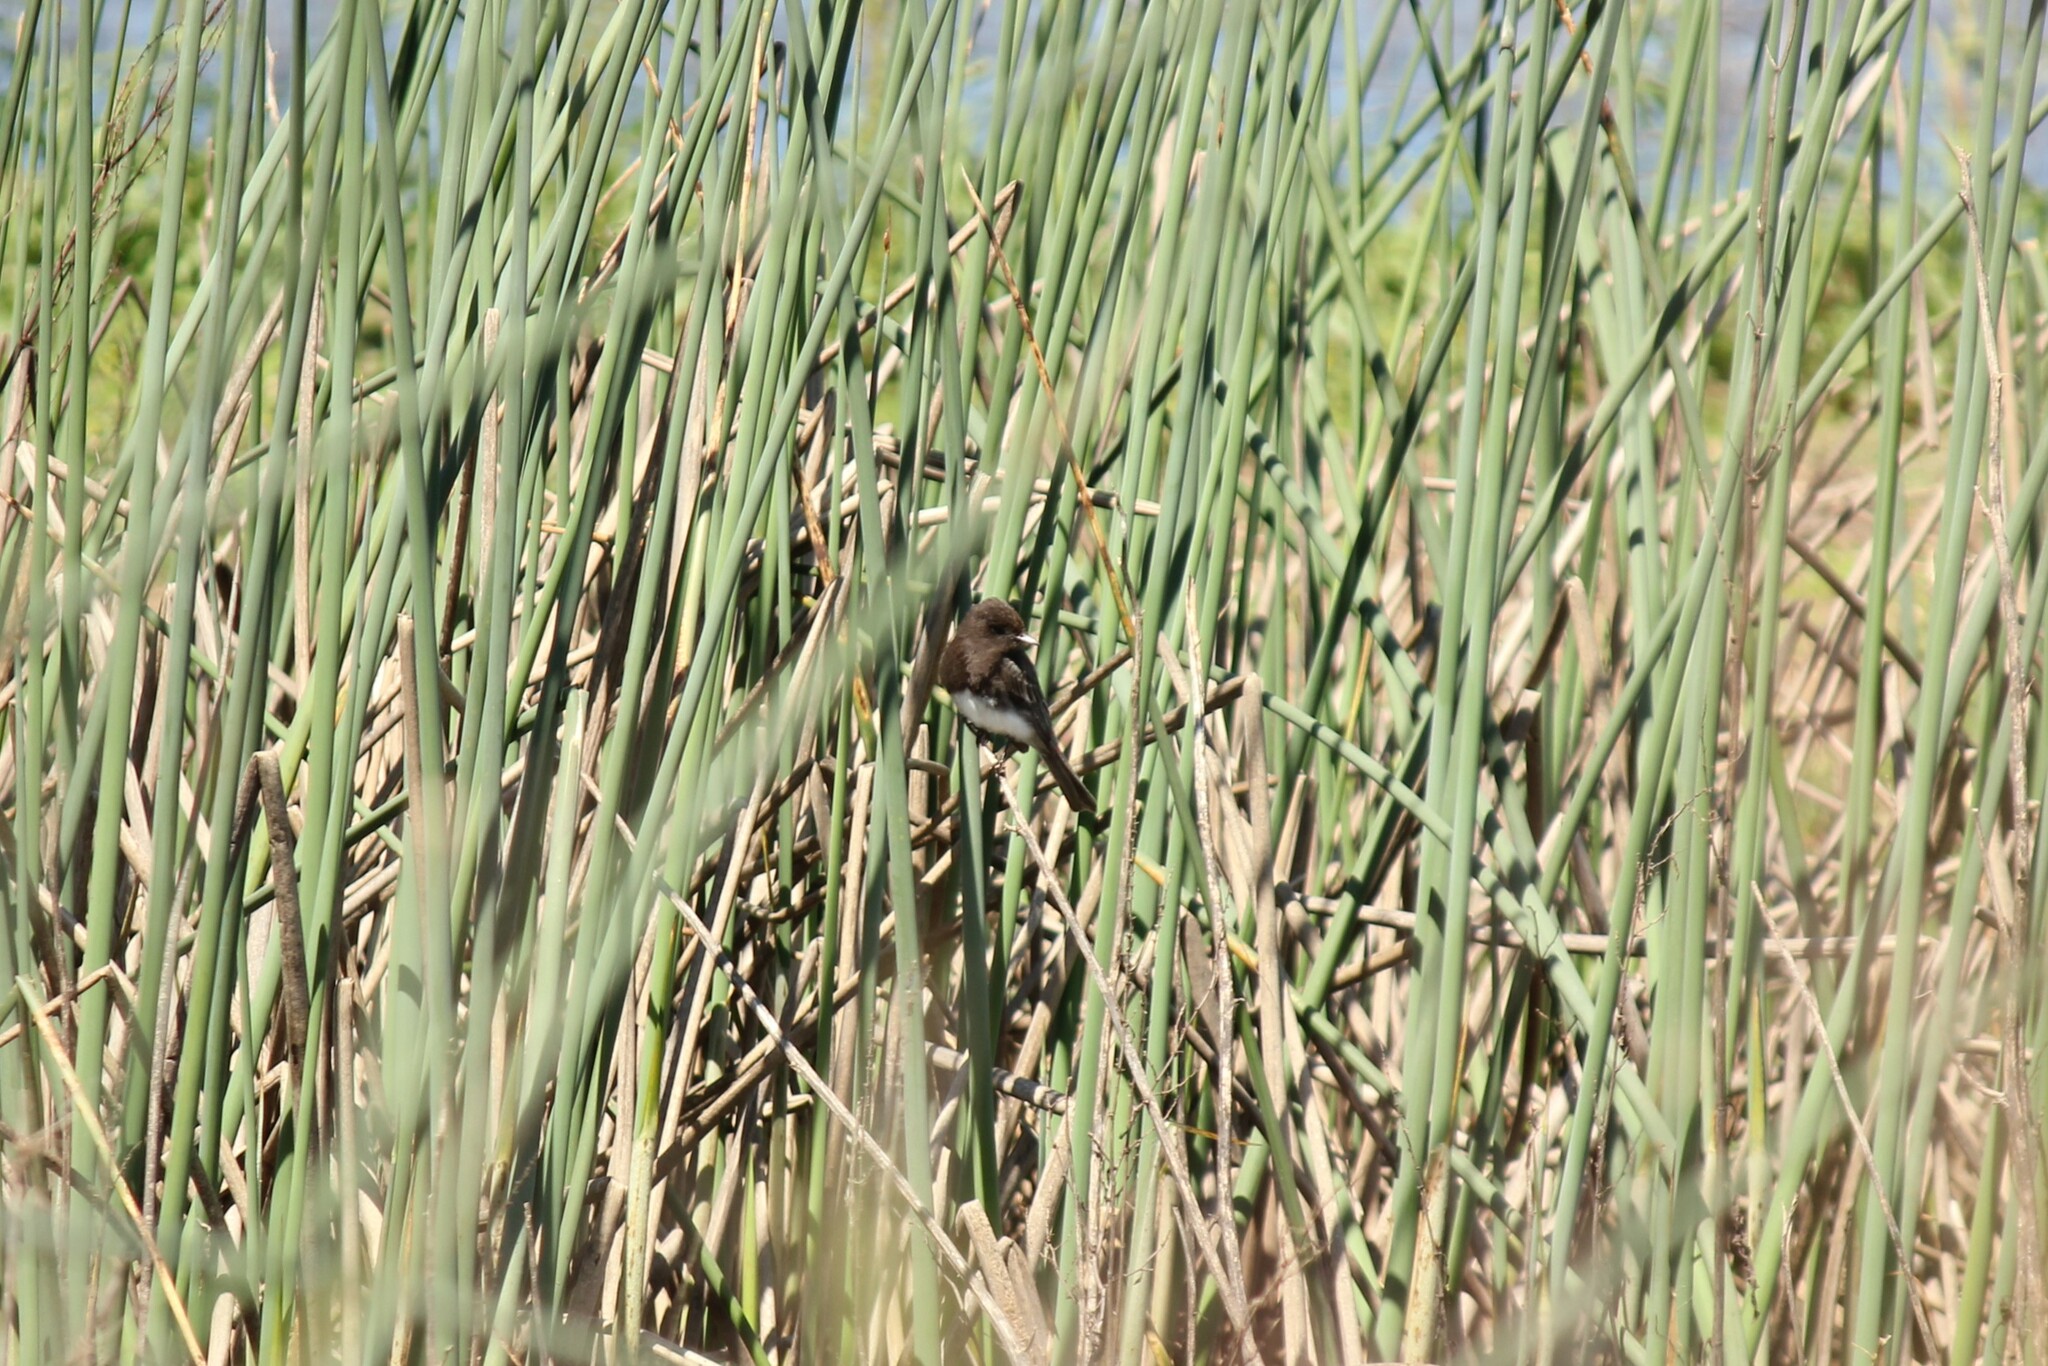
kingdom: Animalia
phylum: Chordata
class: Aves
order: Passeriformes
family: Tyrannidae
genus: Sayornis
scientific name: Sayornis nigricans
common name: Black phoebe
